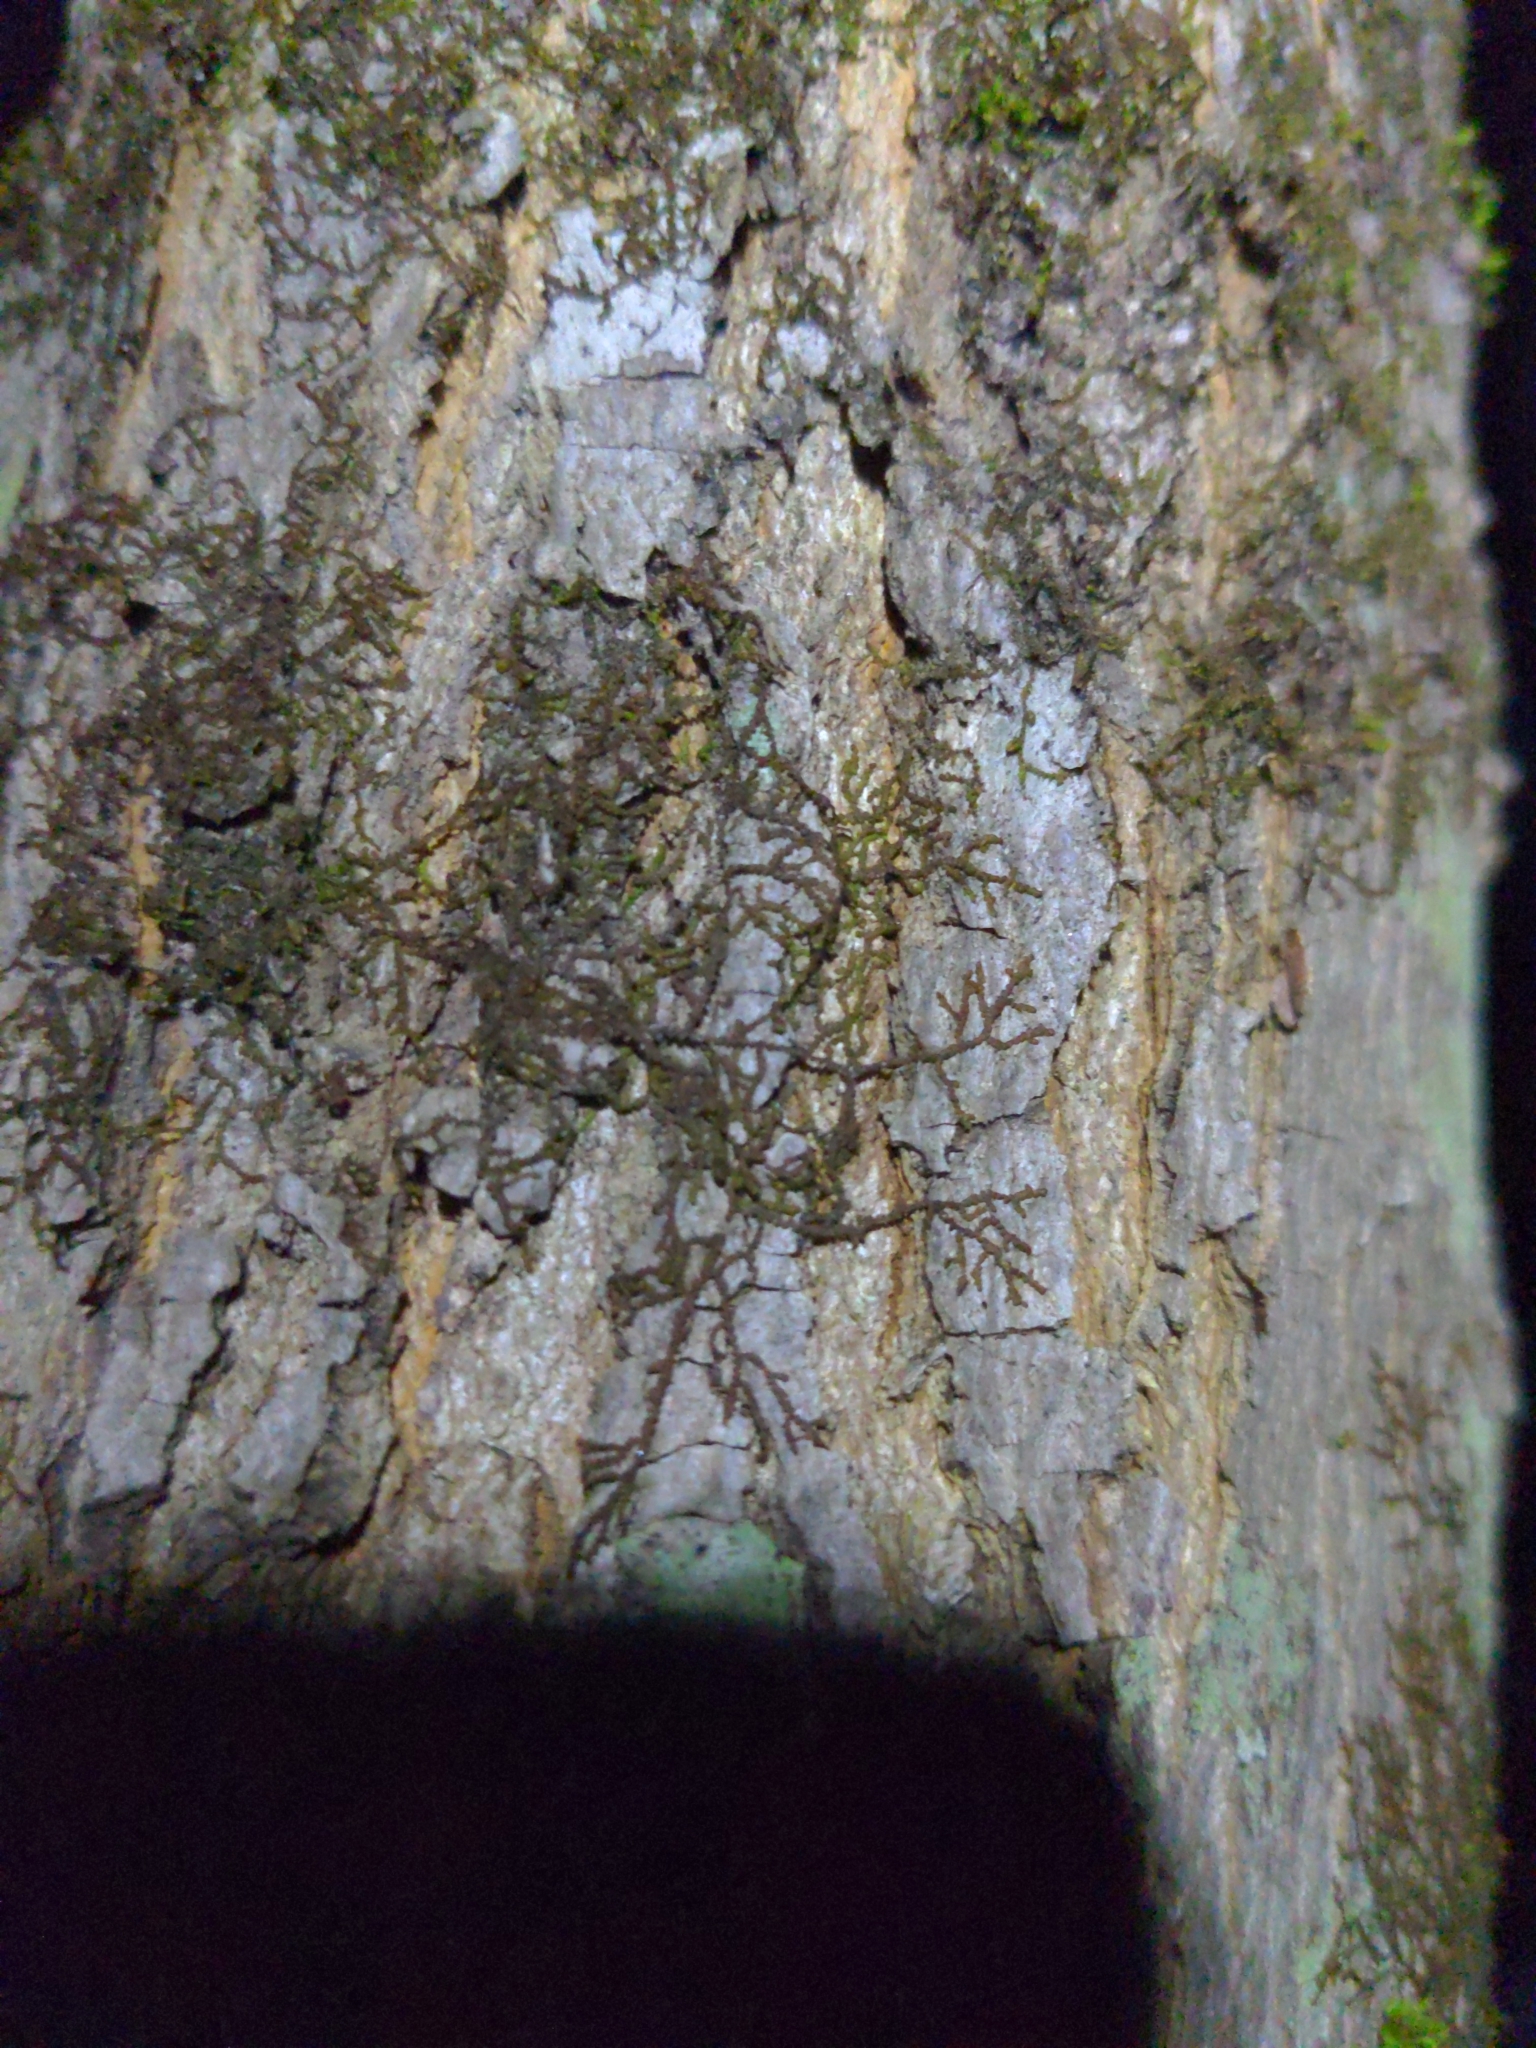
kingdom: Plantae
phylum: Marchantiophyta
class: Jungermanniopsida
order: Porellales
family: Frullaniaceae
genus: Frullania
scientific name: Frullania eboracensis
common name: New york scalewort
